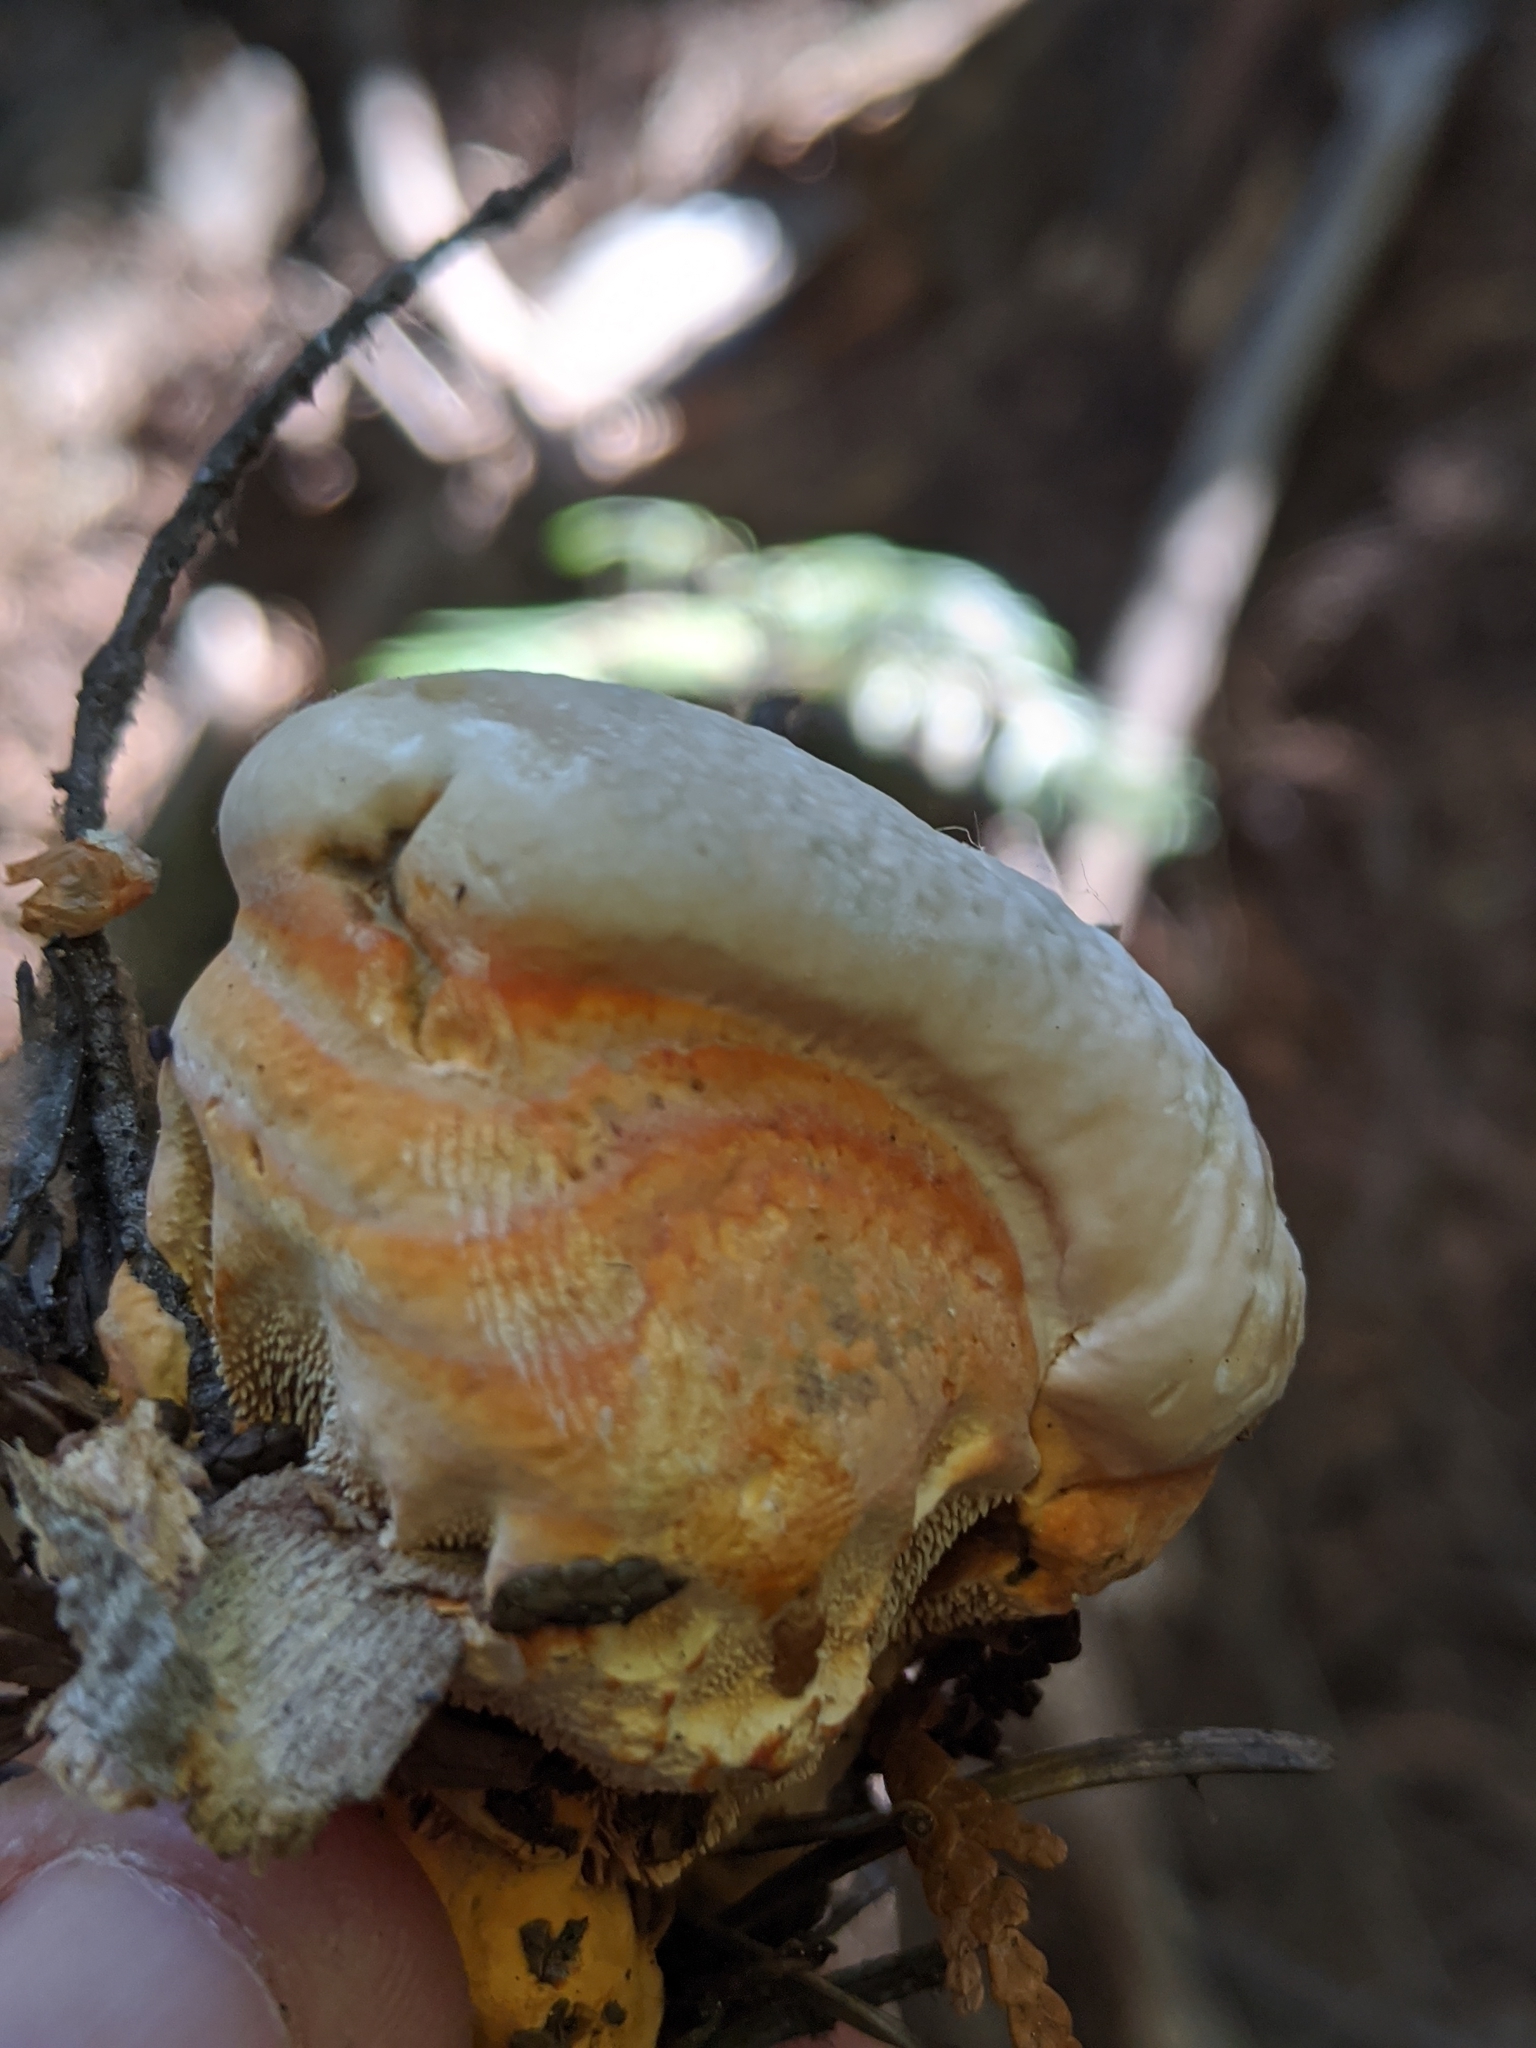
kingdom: Fungi
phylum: Basidiomycota
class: Agaricomycetes
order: Thelephorales
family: Bankeraceae
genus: Hydnellum
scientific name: Hydnellum aurantiacum
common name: Orange tooth
